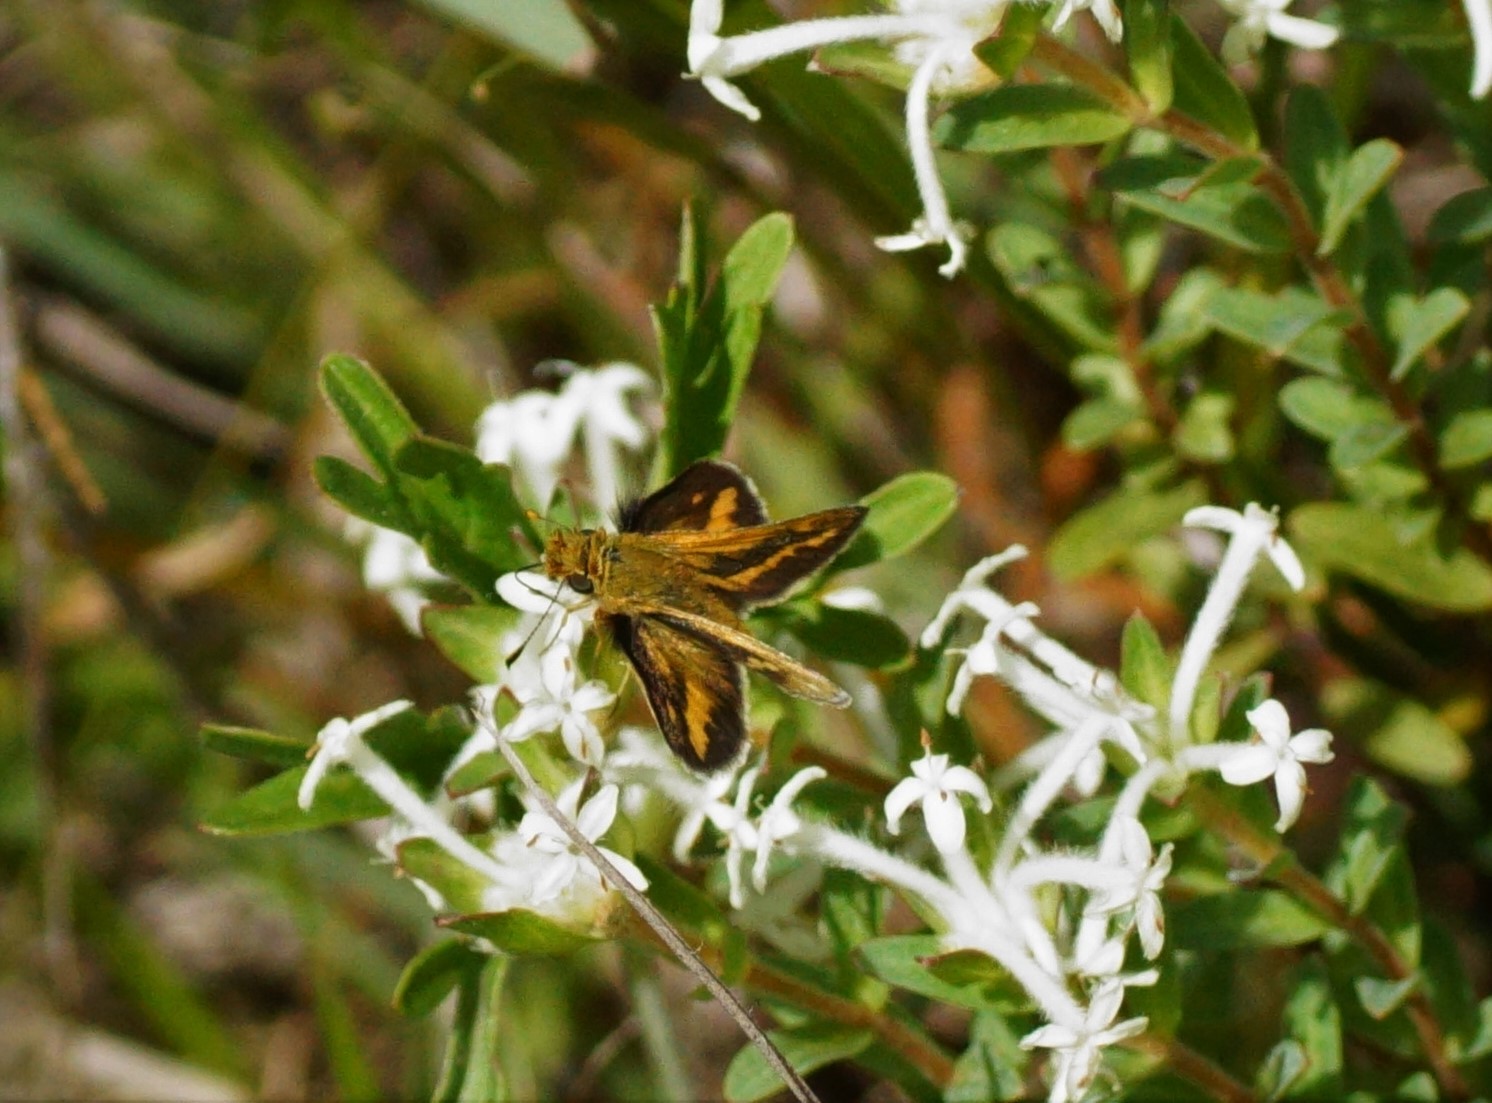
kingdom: Animalia
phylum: Arthropoda
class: Insecta
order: Lepidoptera
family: Hesperiidae
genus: Taractrocera
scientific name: Taractrocera papyria
